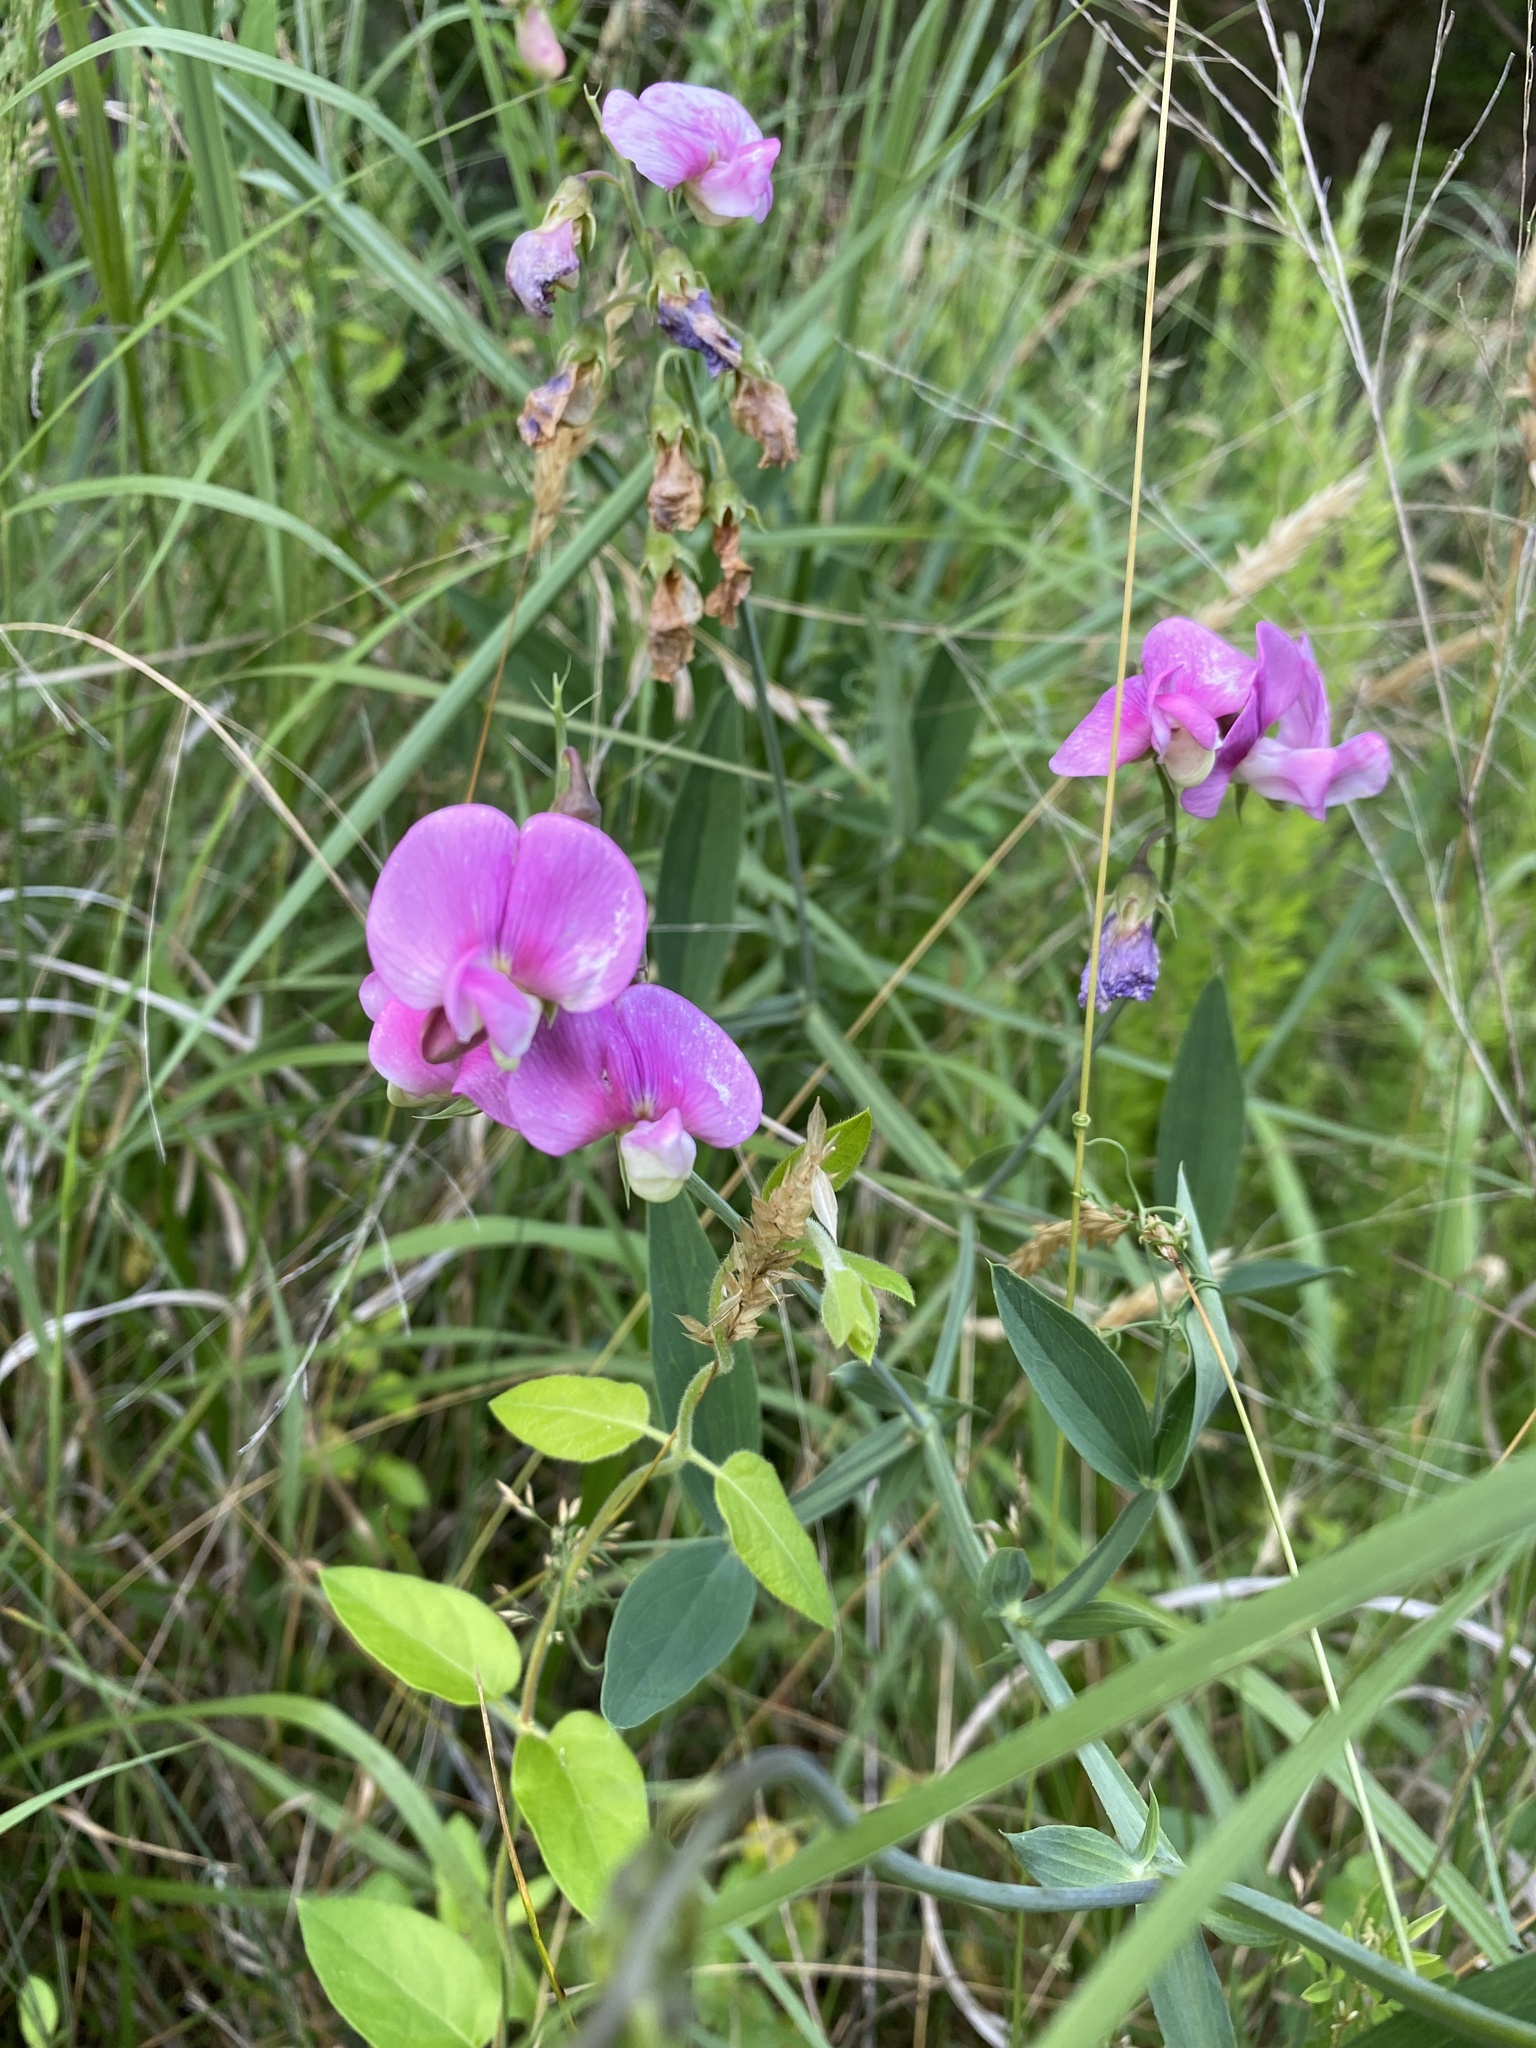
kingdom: Plantae
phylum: Tracheophyta
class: Magnoliopsida
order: Fabales
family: Fabaceae
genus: Lathyrus
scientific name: Lathyrus latifolius
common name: Perennial pea
